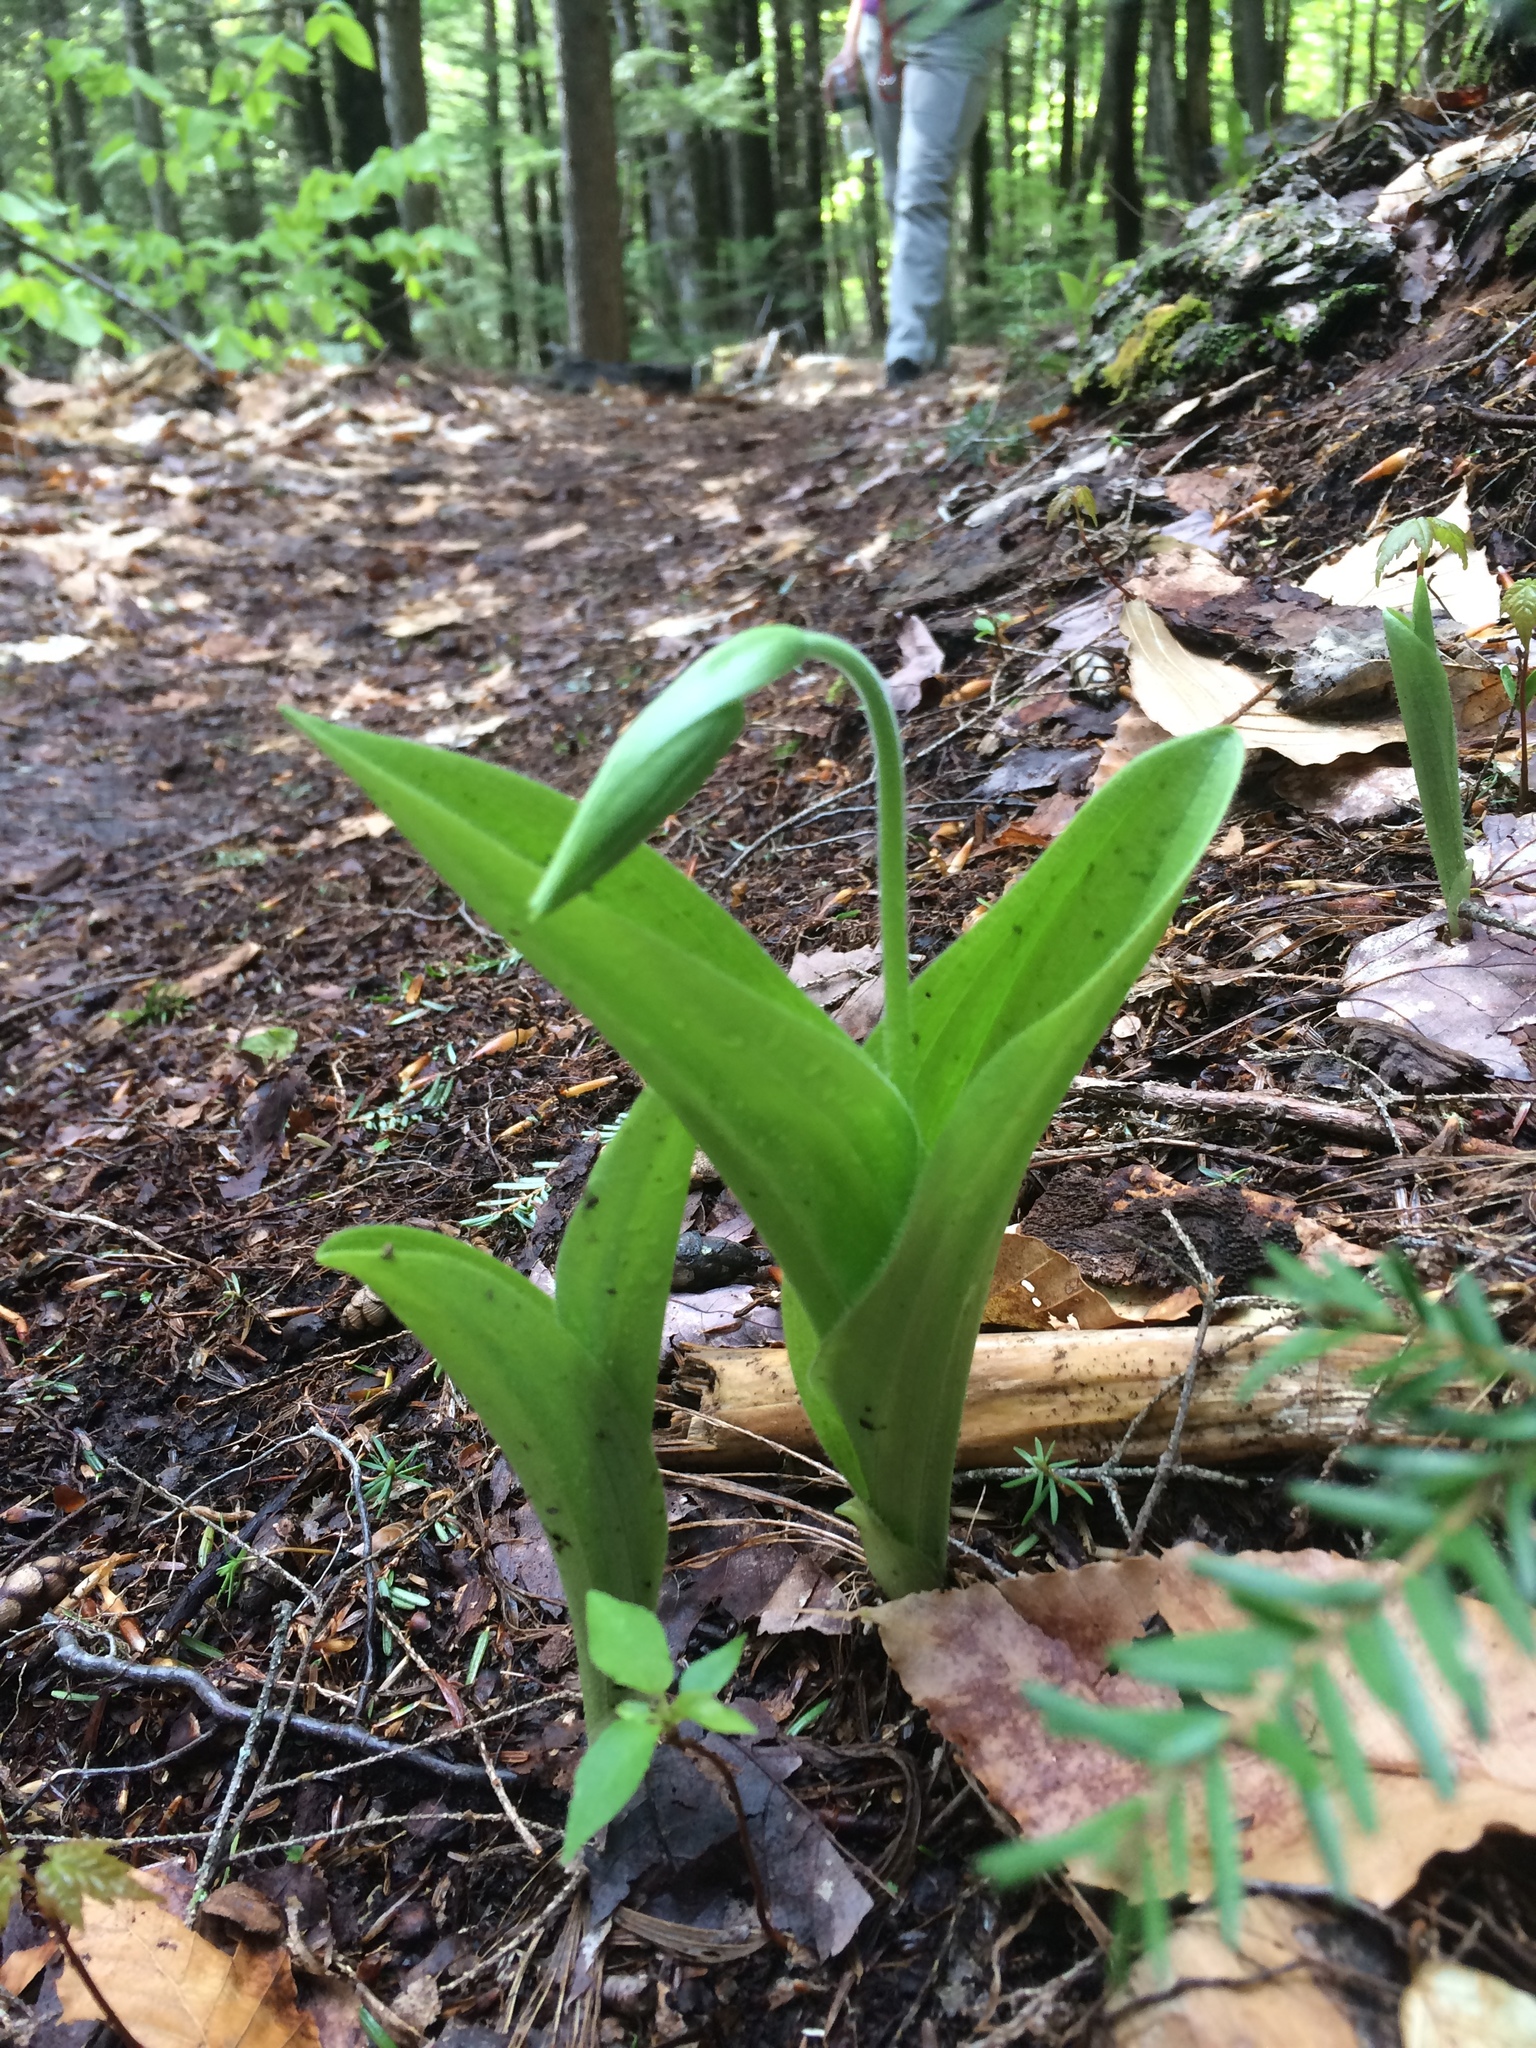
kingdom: Plantae
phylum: Tracheophyta
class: Liliopsida
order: Asparagales
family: Orchidaceae
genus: Cypripedium
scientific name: Cypripedium acaule
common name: Pink lady's-slipper
